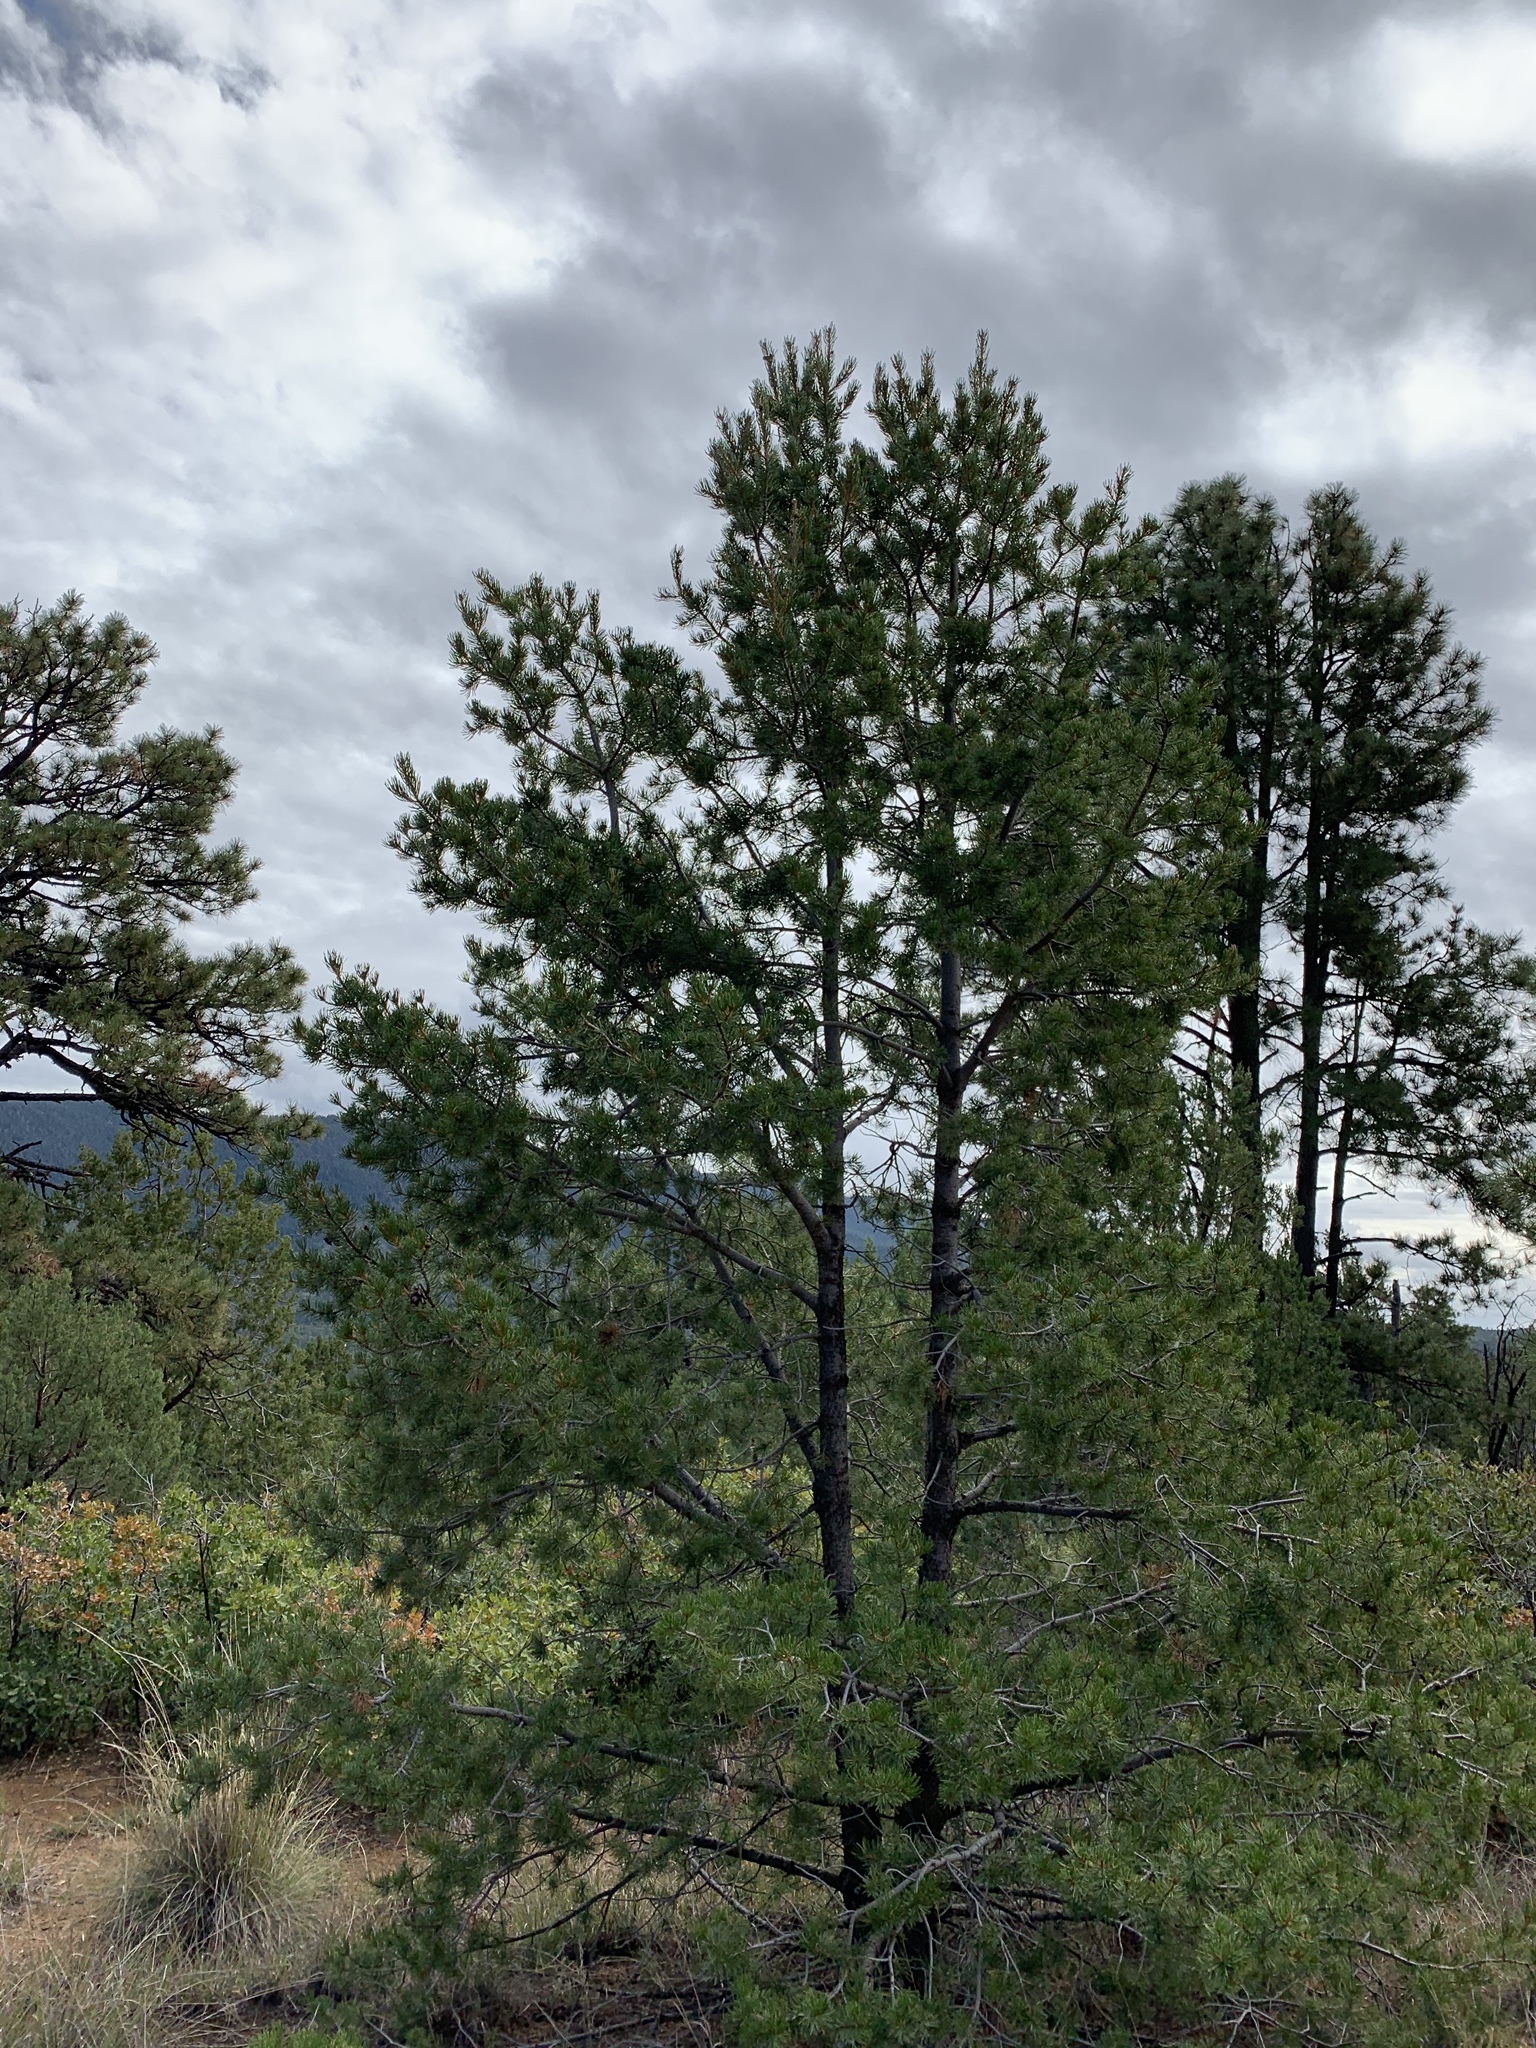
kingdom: Plantae
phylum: Tracheophyta
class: Pinopsida
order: Pinales
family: Pinaceae
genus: Pinus
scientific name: Pinus edulis
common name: Colorado pinyon
